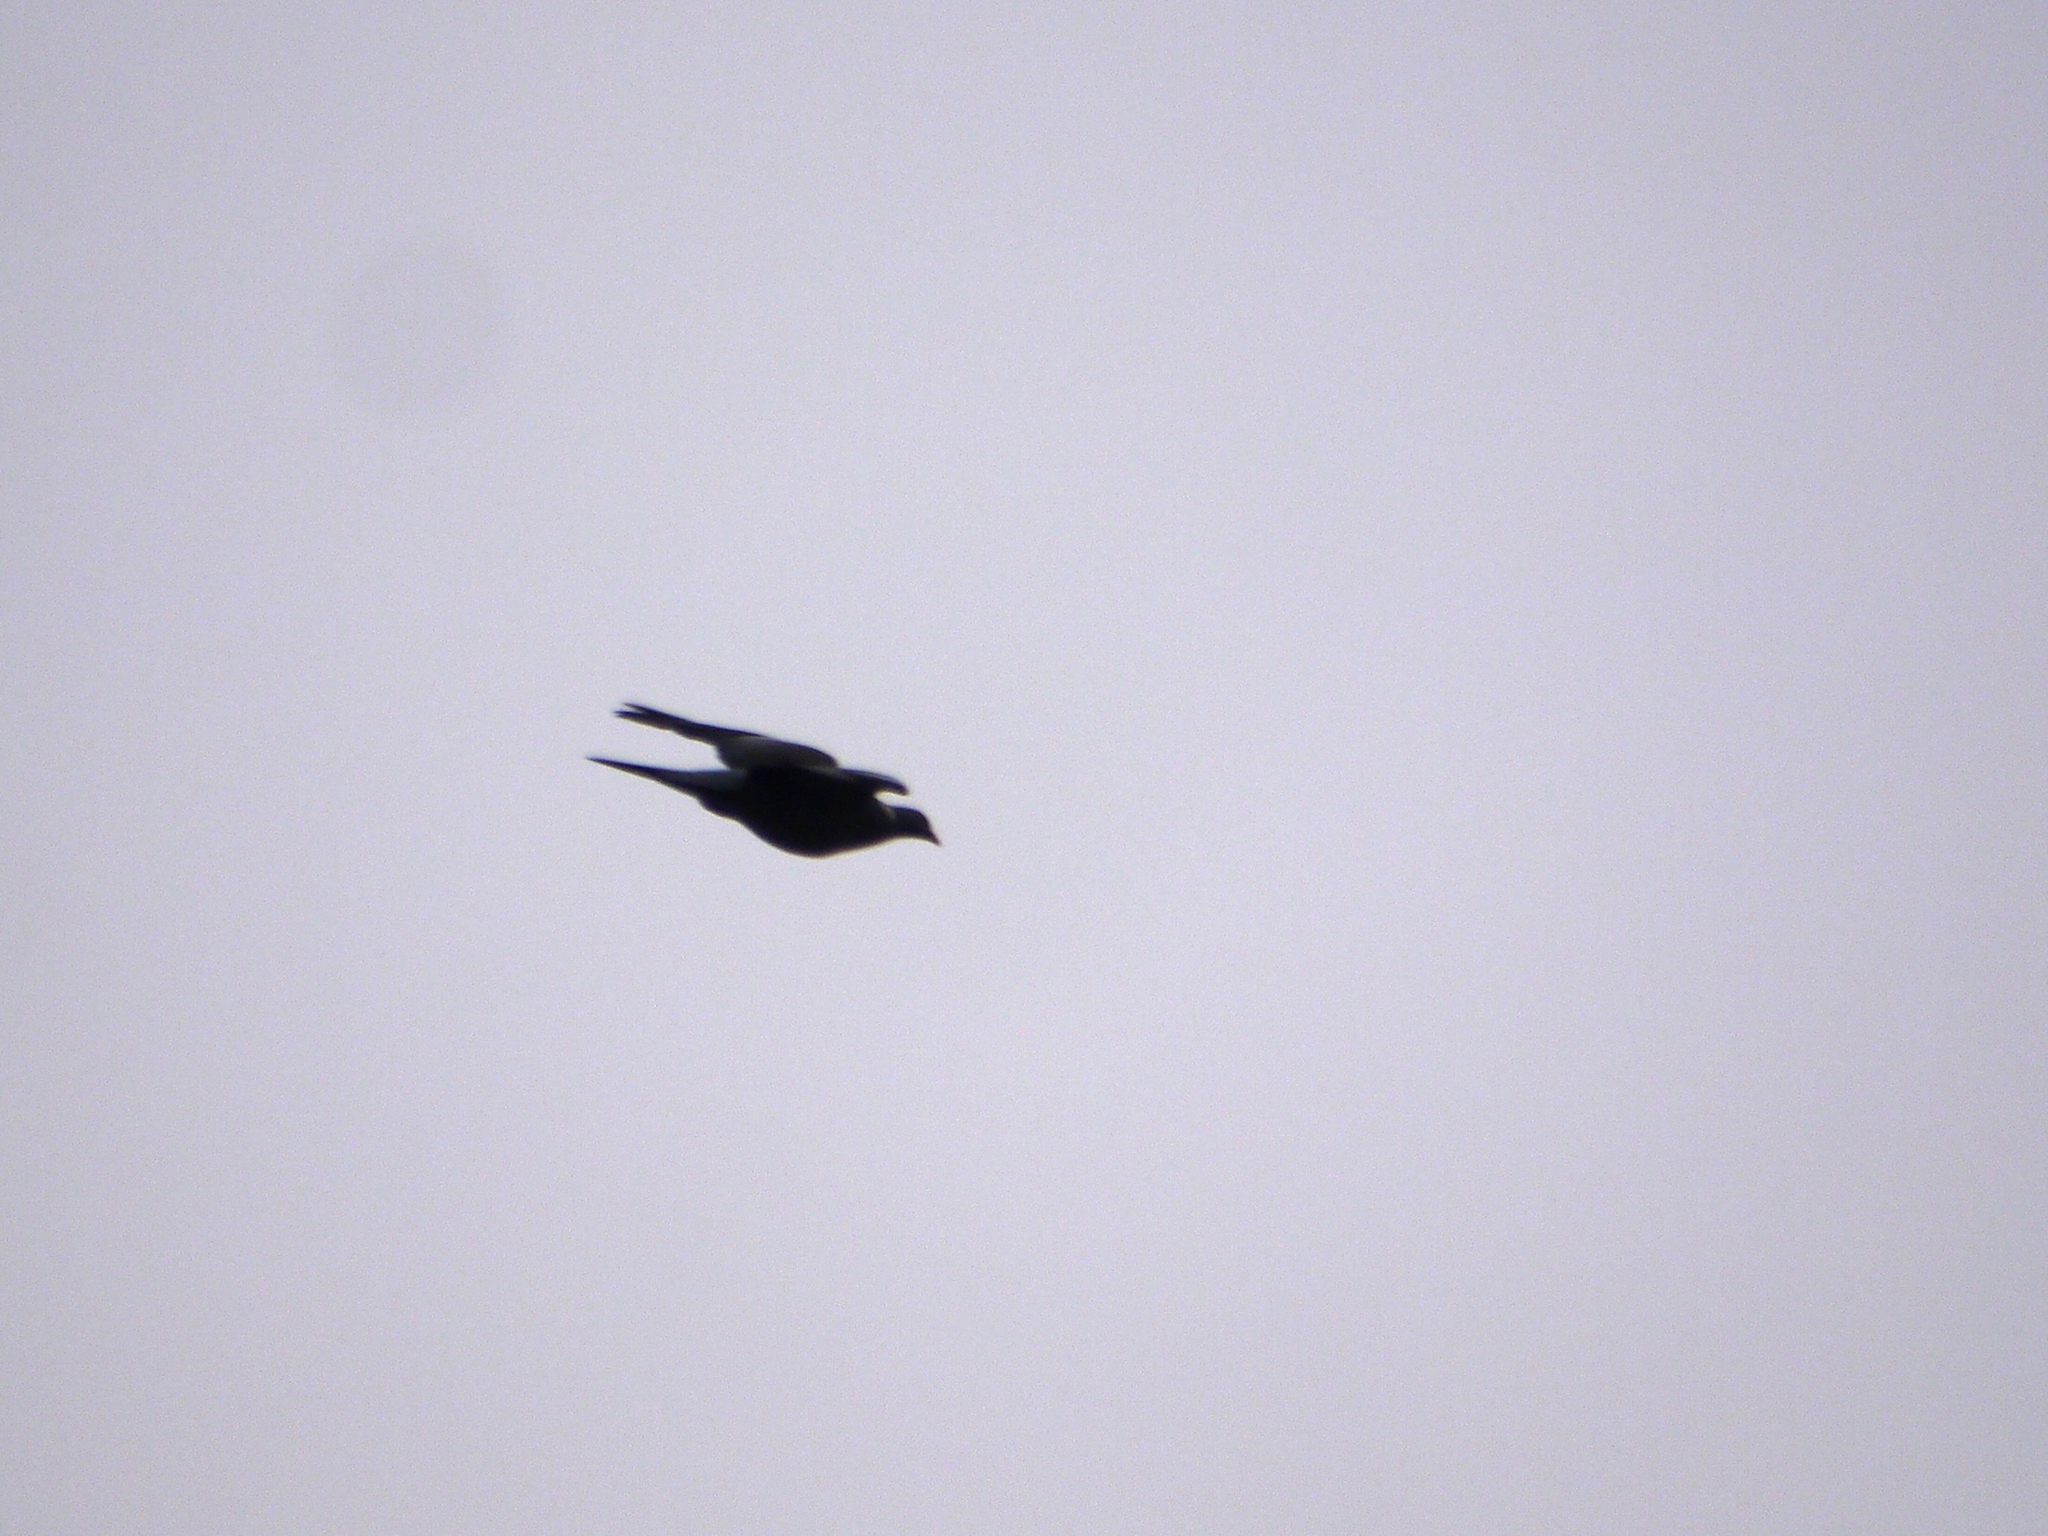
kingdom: Animalia
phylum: Chordata
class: Aves
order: Columbiformes
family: Columbidae
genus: Columba
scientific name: Columba palumbus
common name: Common wood pigeon
